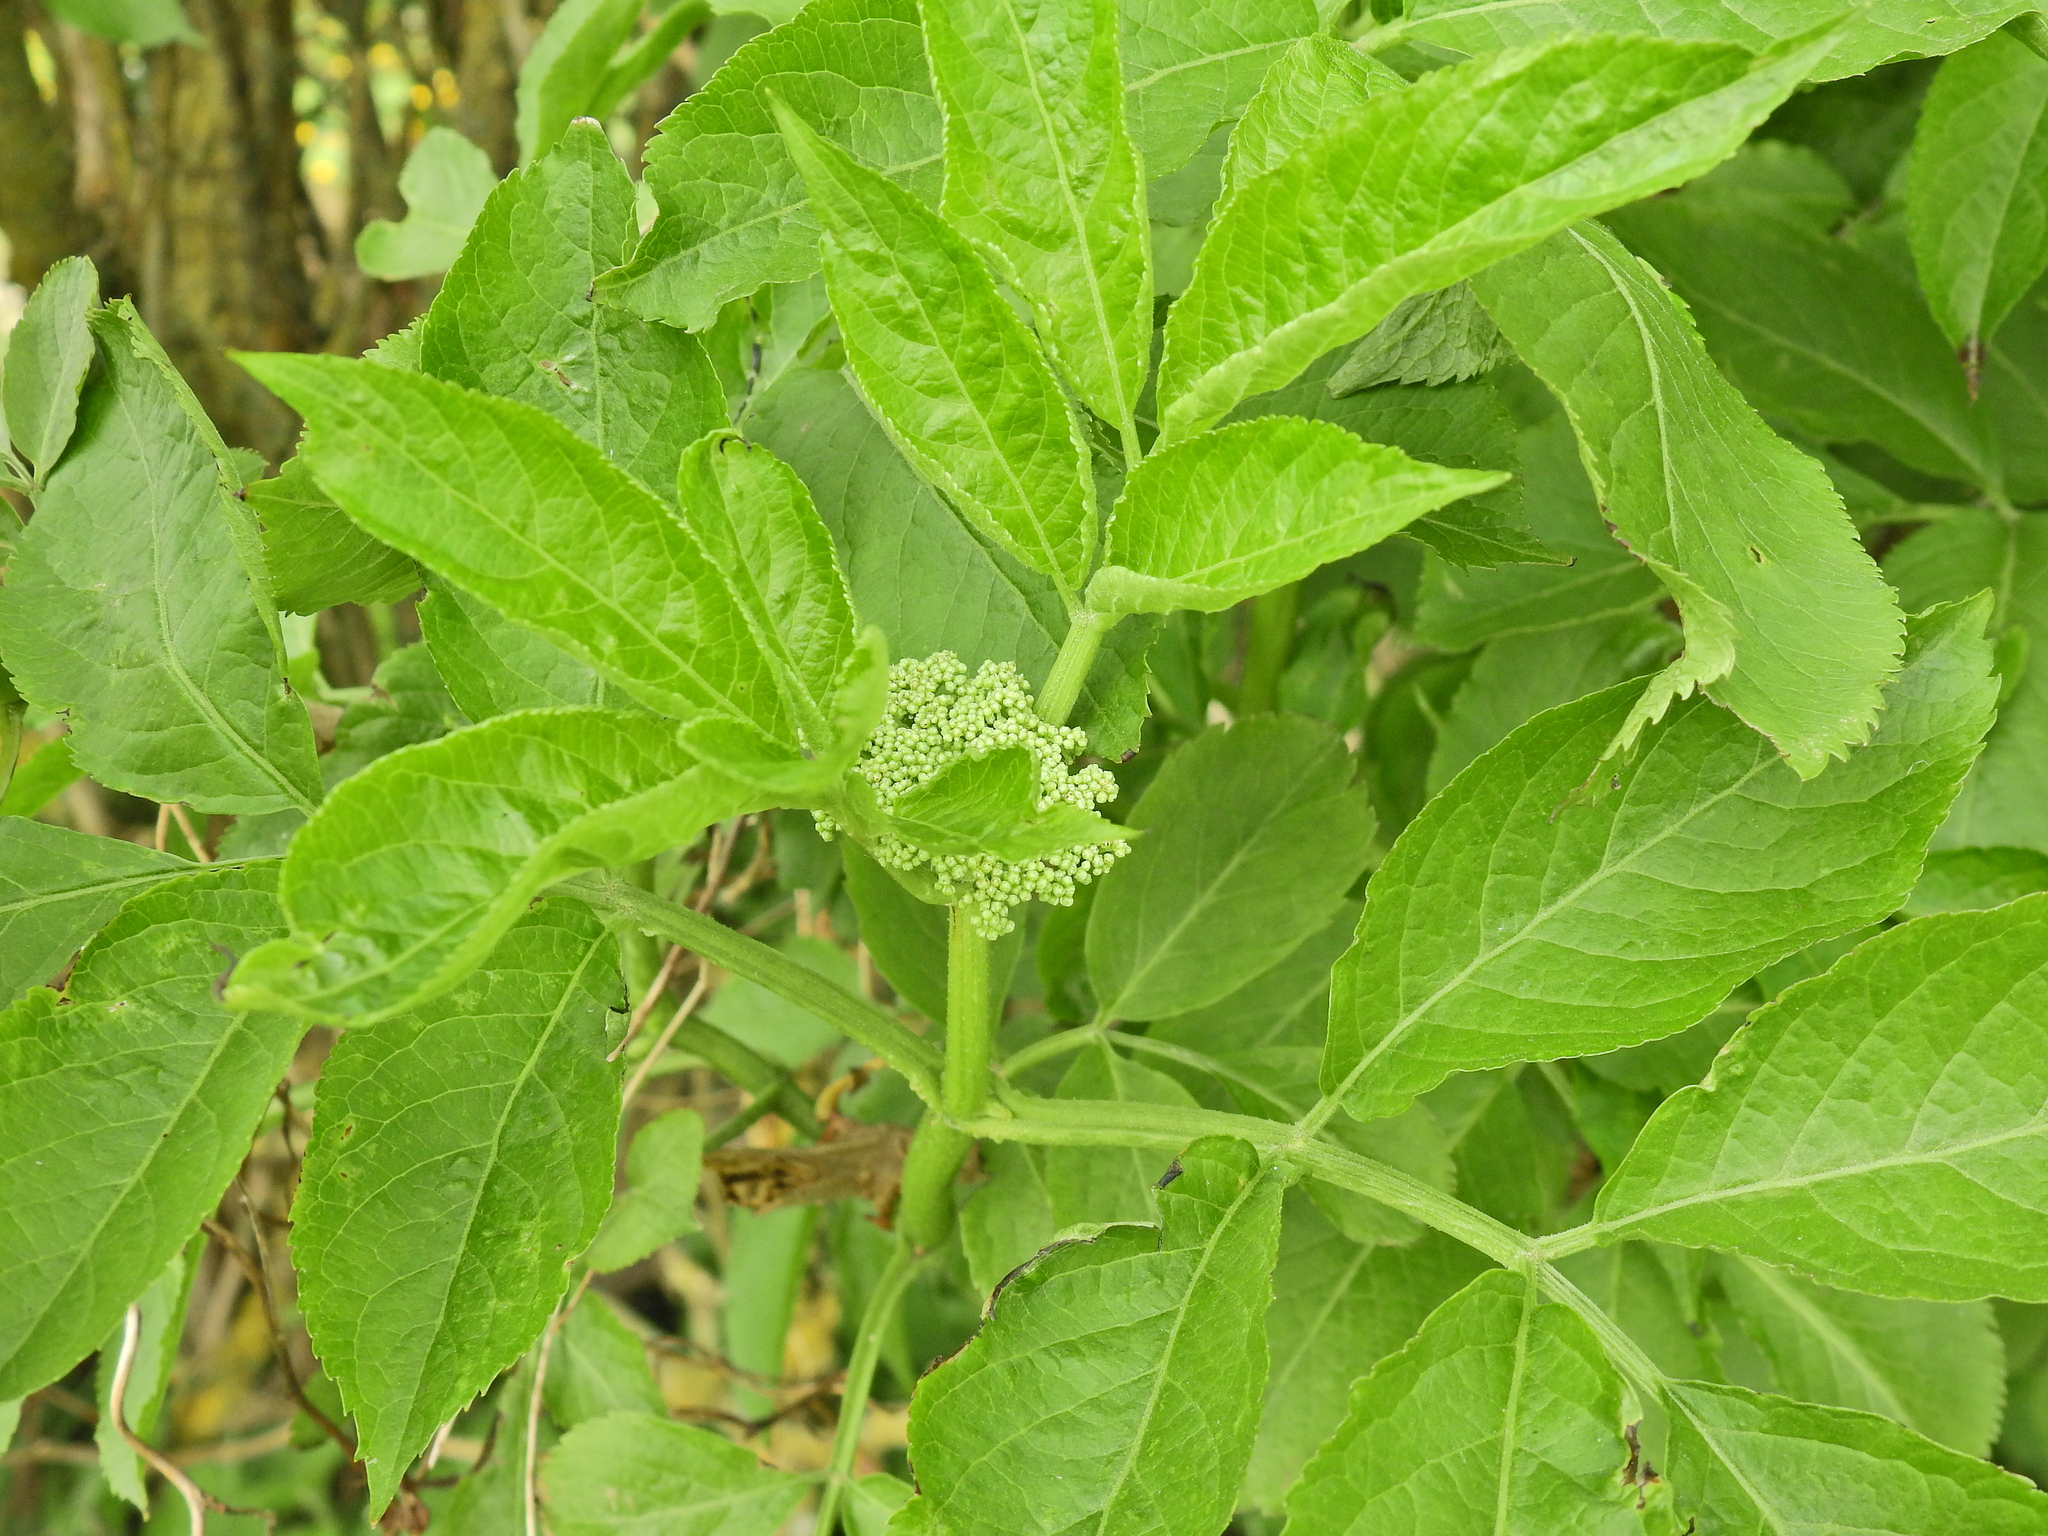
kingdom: Plantae
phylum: Tracheophyta
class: Magnoliopsida
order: Dipsacales
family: Viburnaceae
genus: Sambucus
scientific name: Sambucus nigra
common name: Elder
